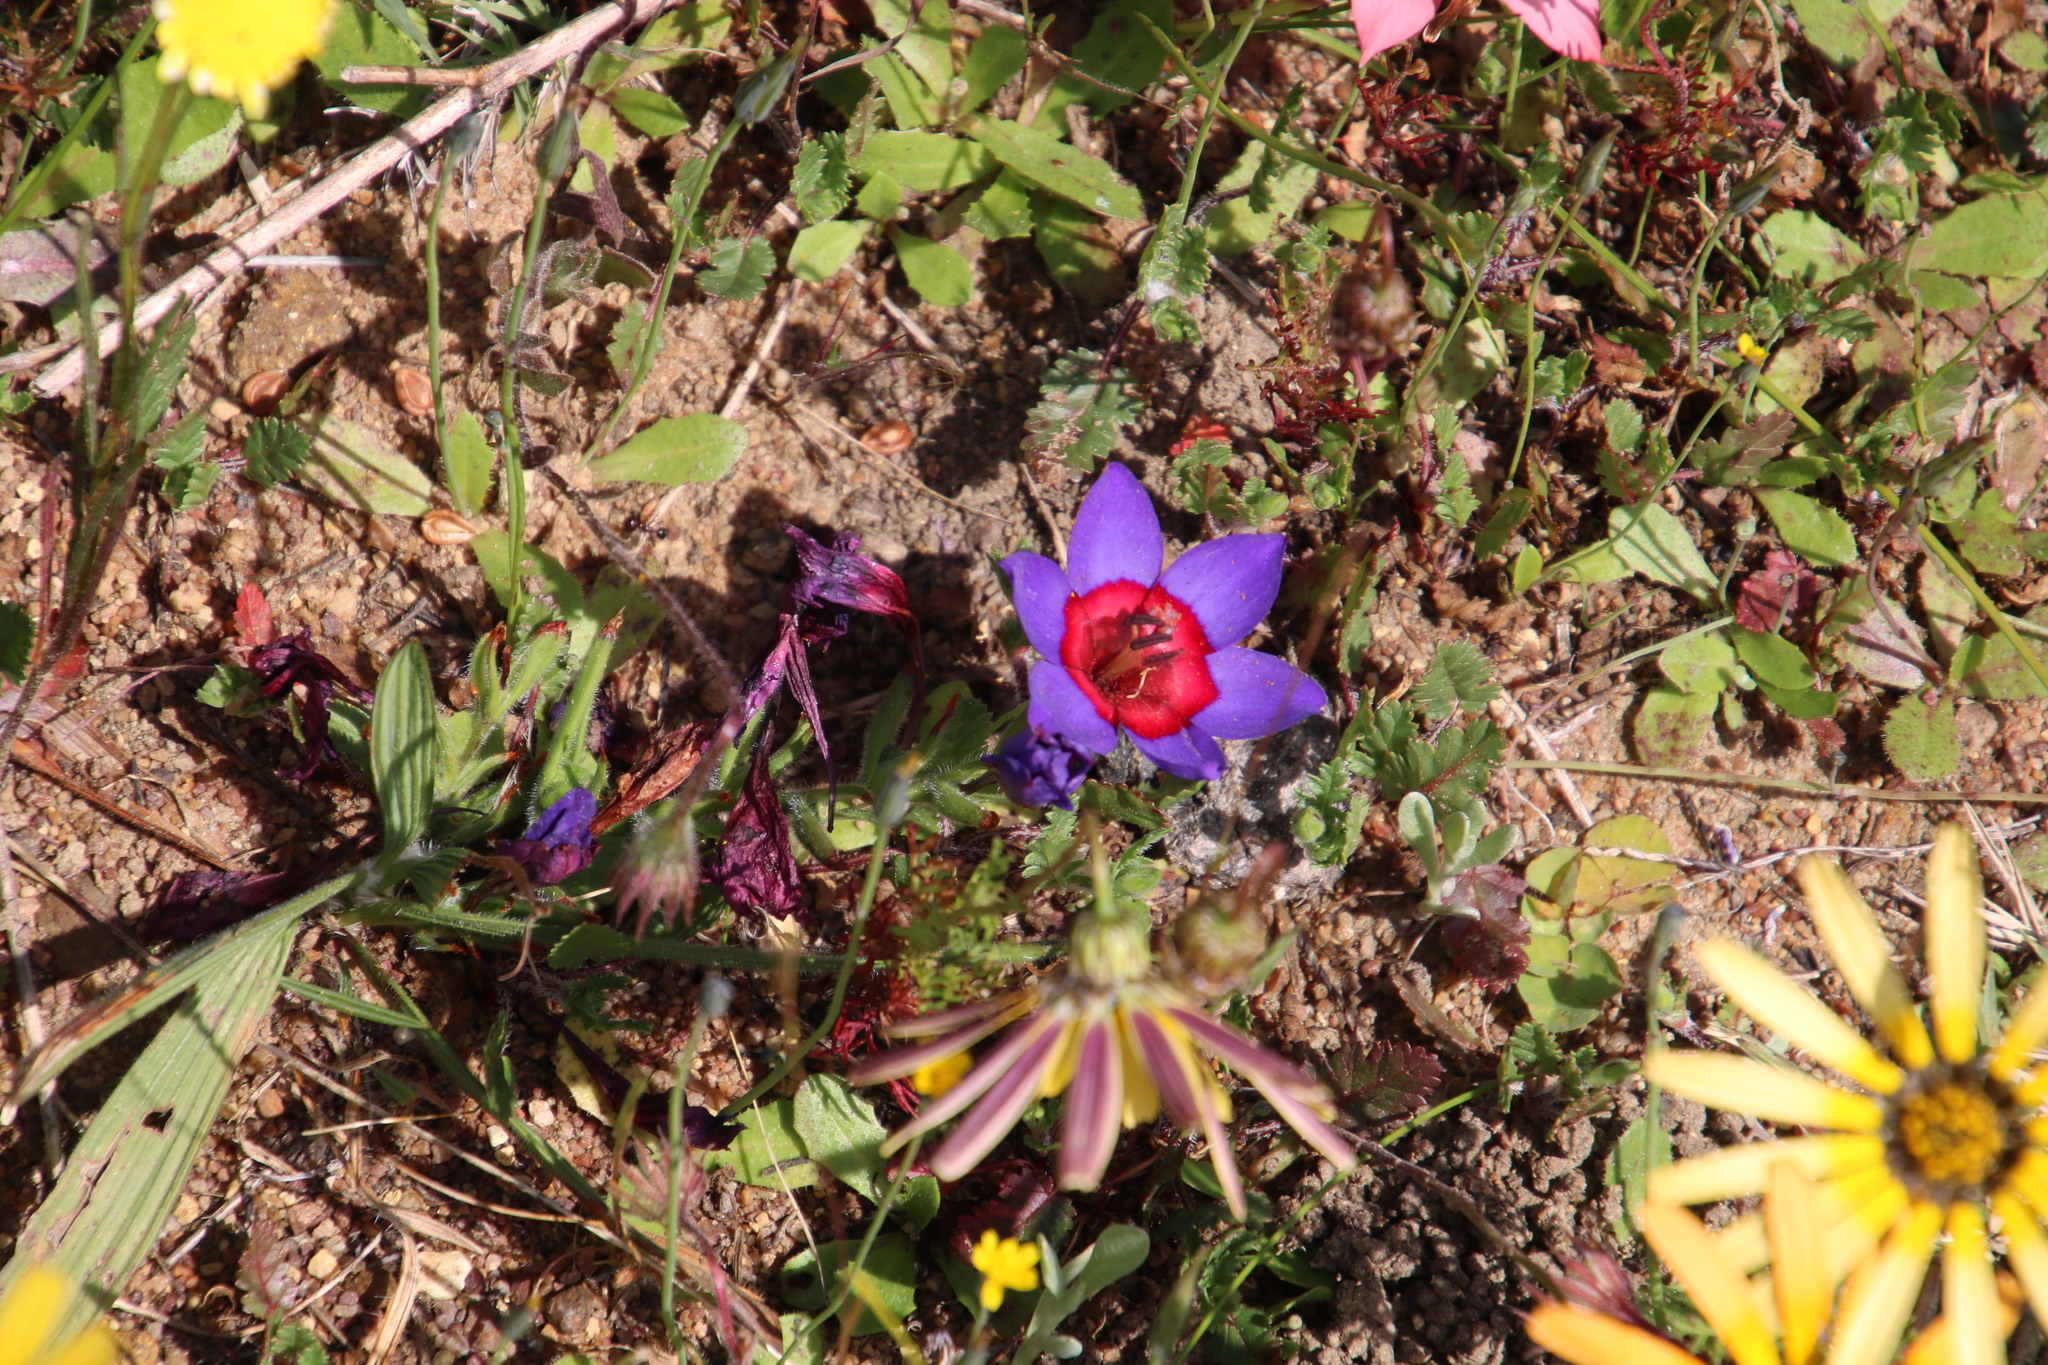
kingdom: Plantae
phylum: Tracheophyta
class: Liliopsida
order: Asparagales
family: Iridaceae
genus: Babiana
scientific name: Babiana rubrocyanea
